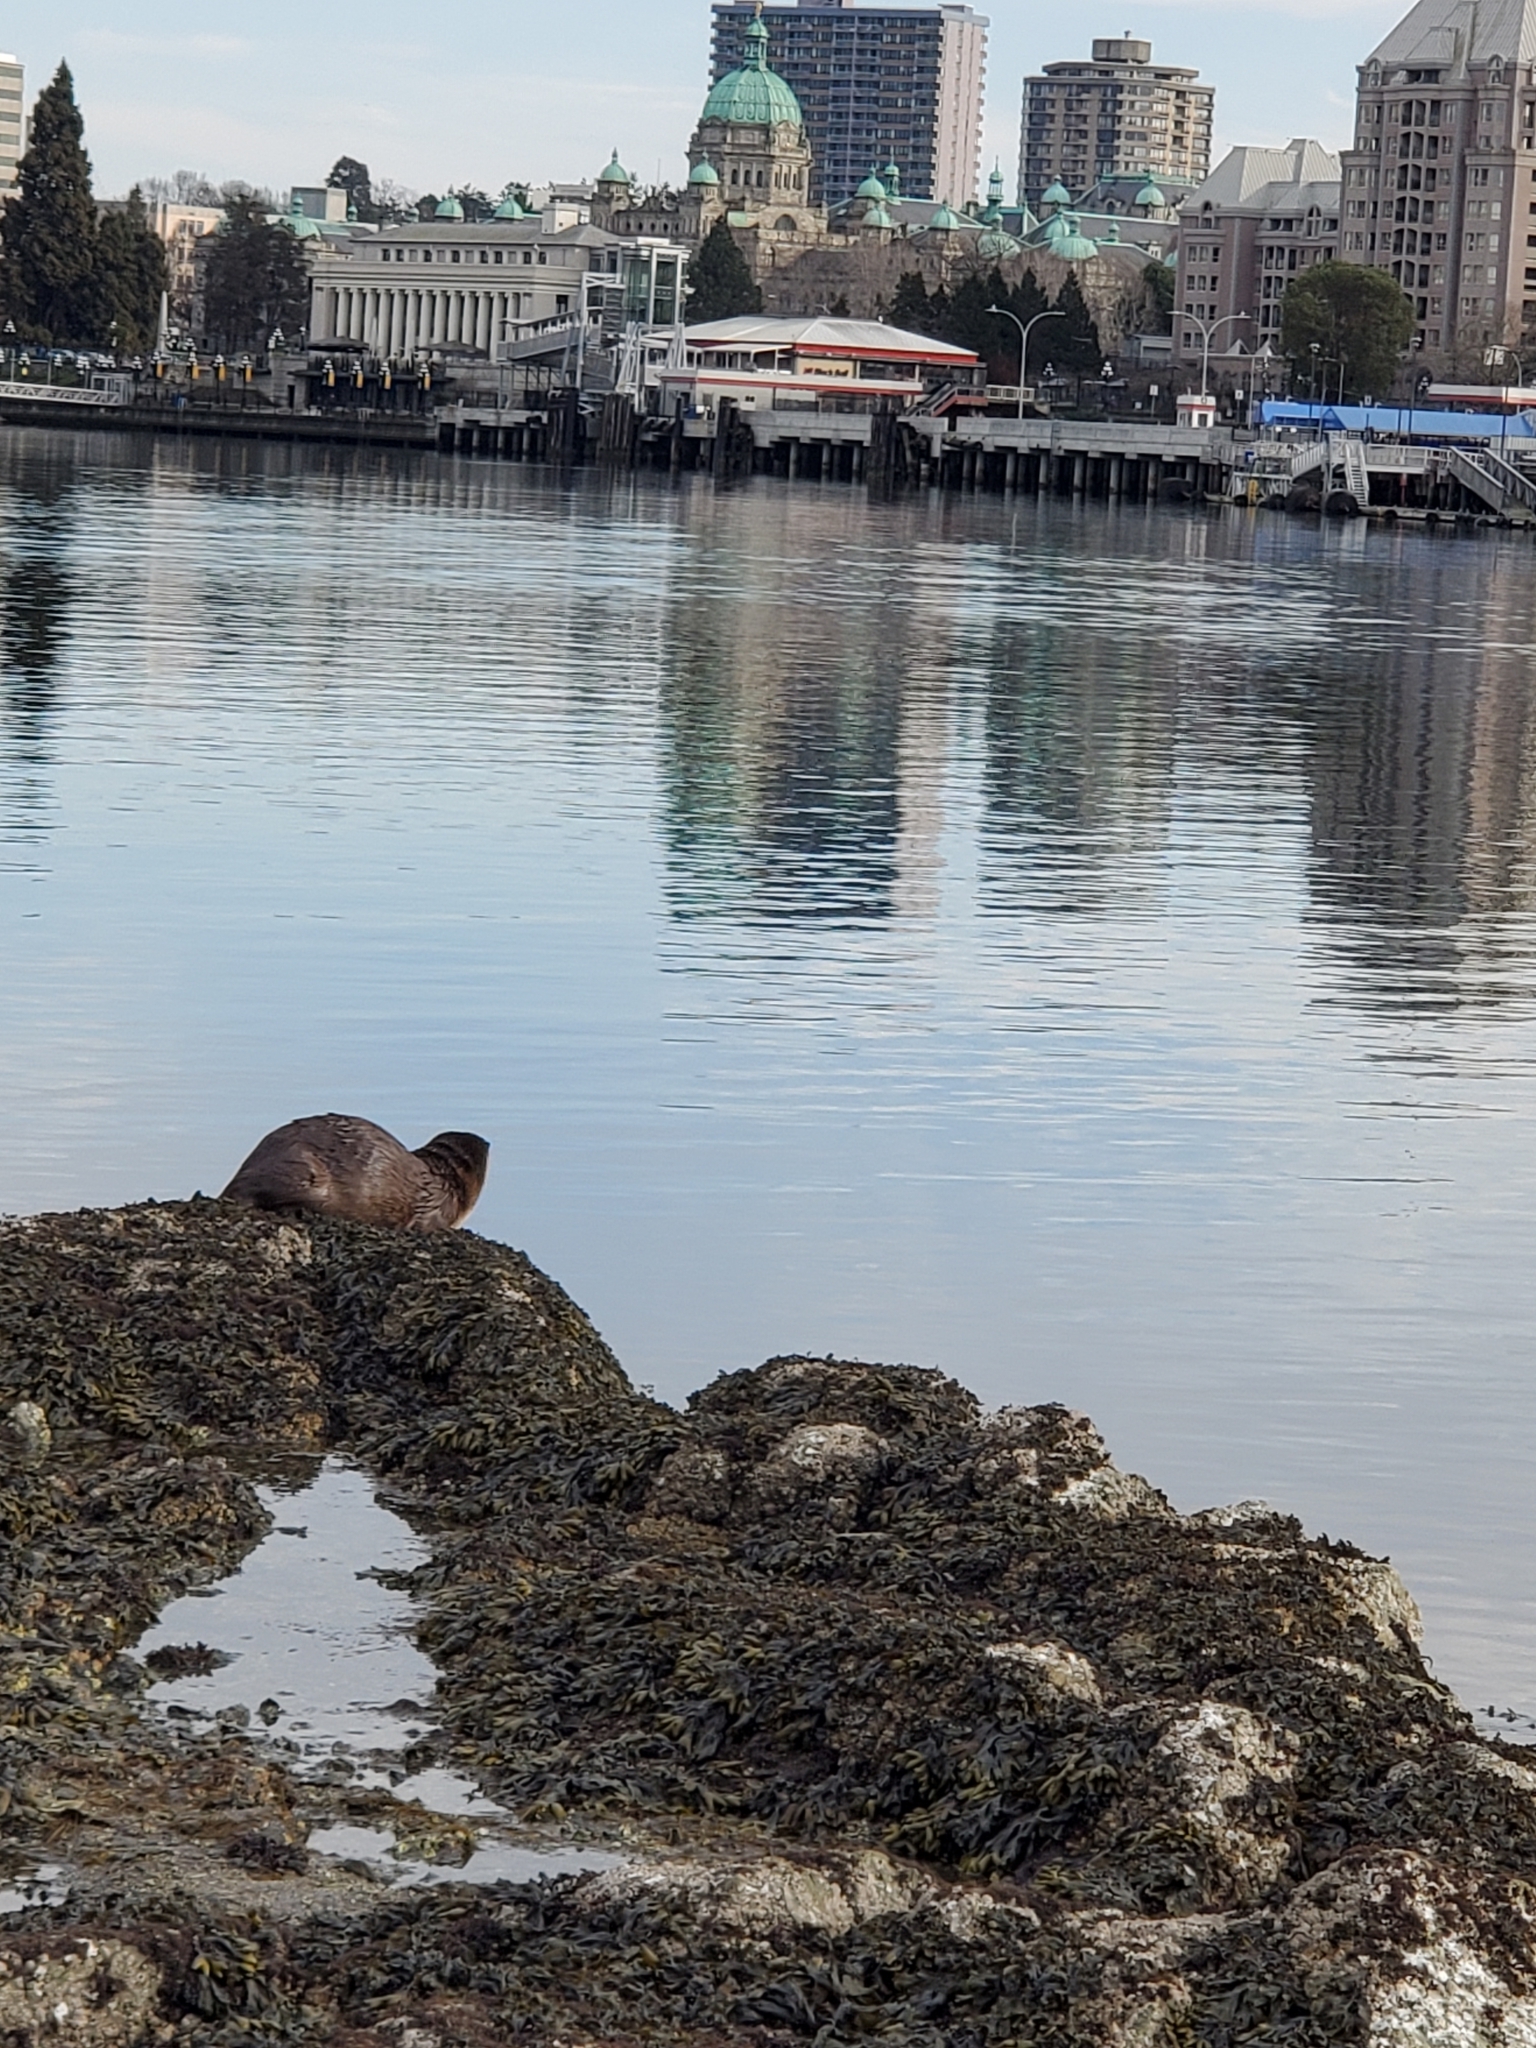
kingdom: Animalia
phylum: Chordata
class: Mammalia
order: Carnivora
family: Mustelidae
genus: Lontra
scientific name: Lontra canadensis
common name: North american river otter
